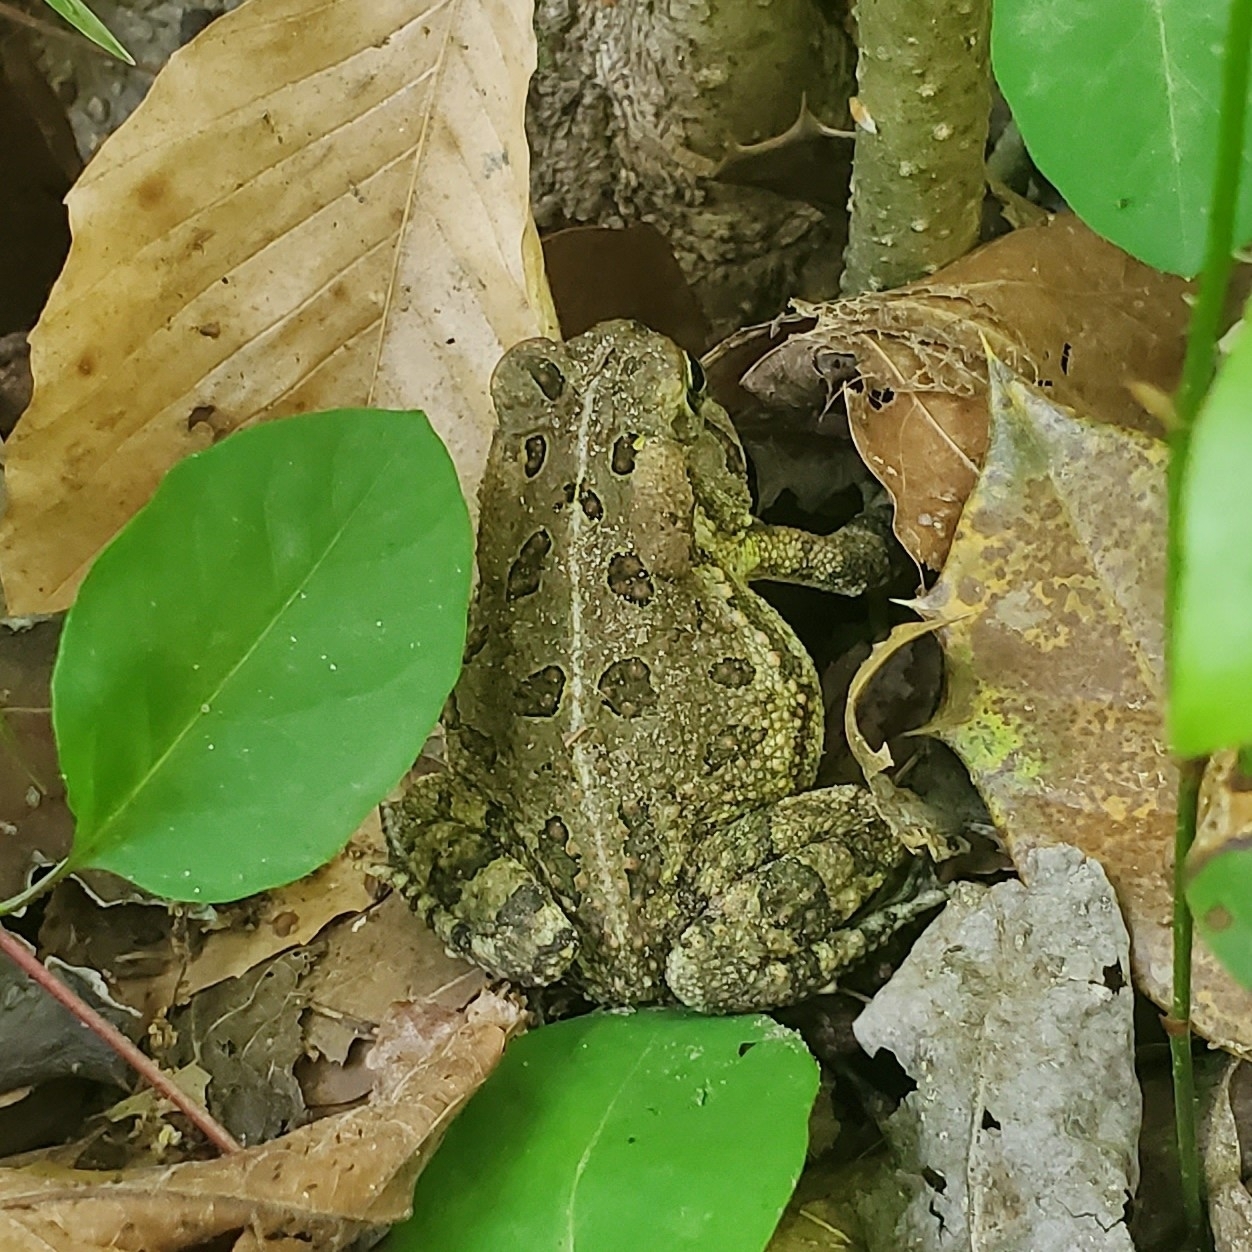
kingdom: Animalia
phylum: Chordata
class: Amphibia
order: Anura
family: Bufonidae
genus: Anaxyrus
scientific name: Anaxyrus fowleri
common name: Fowler's toad
